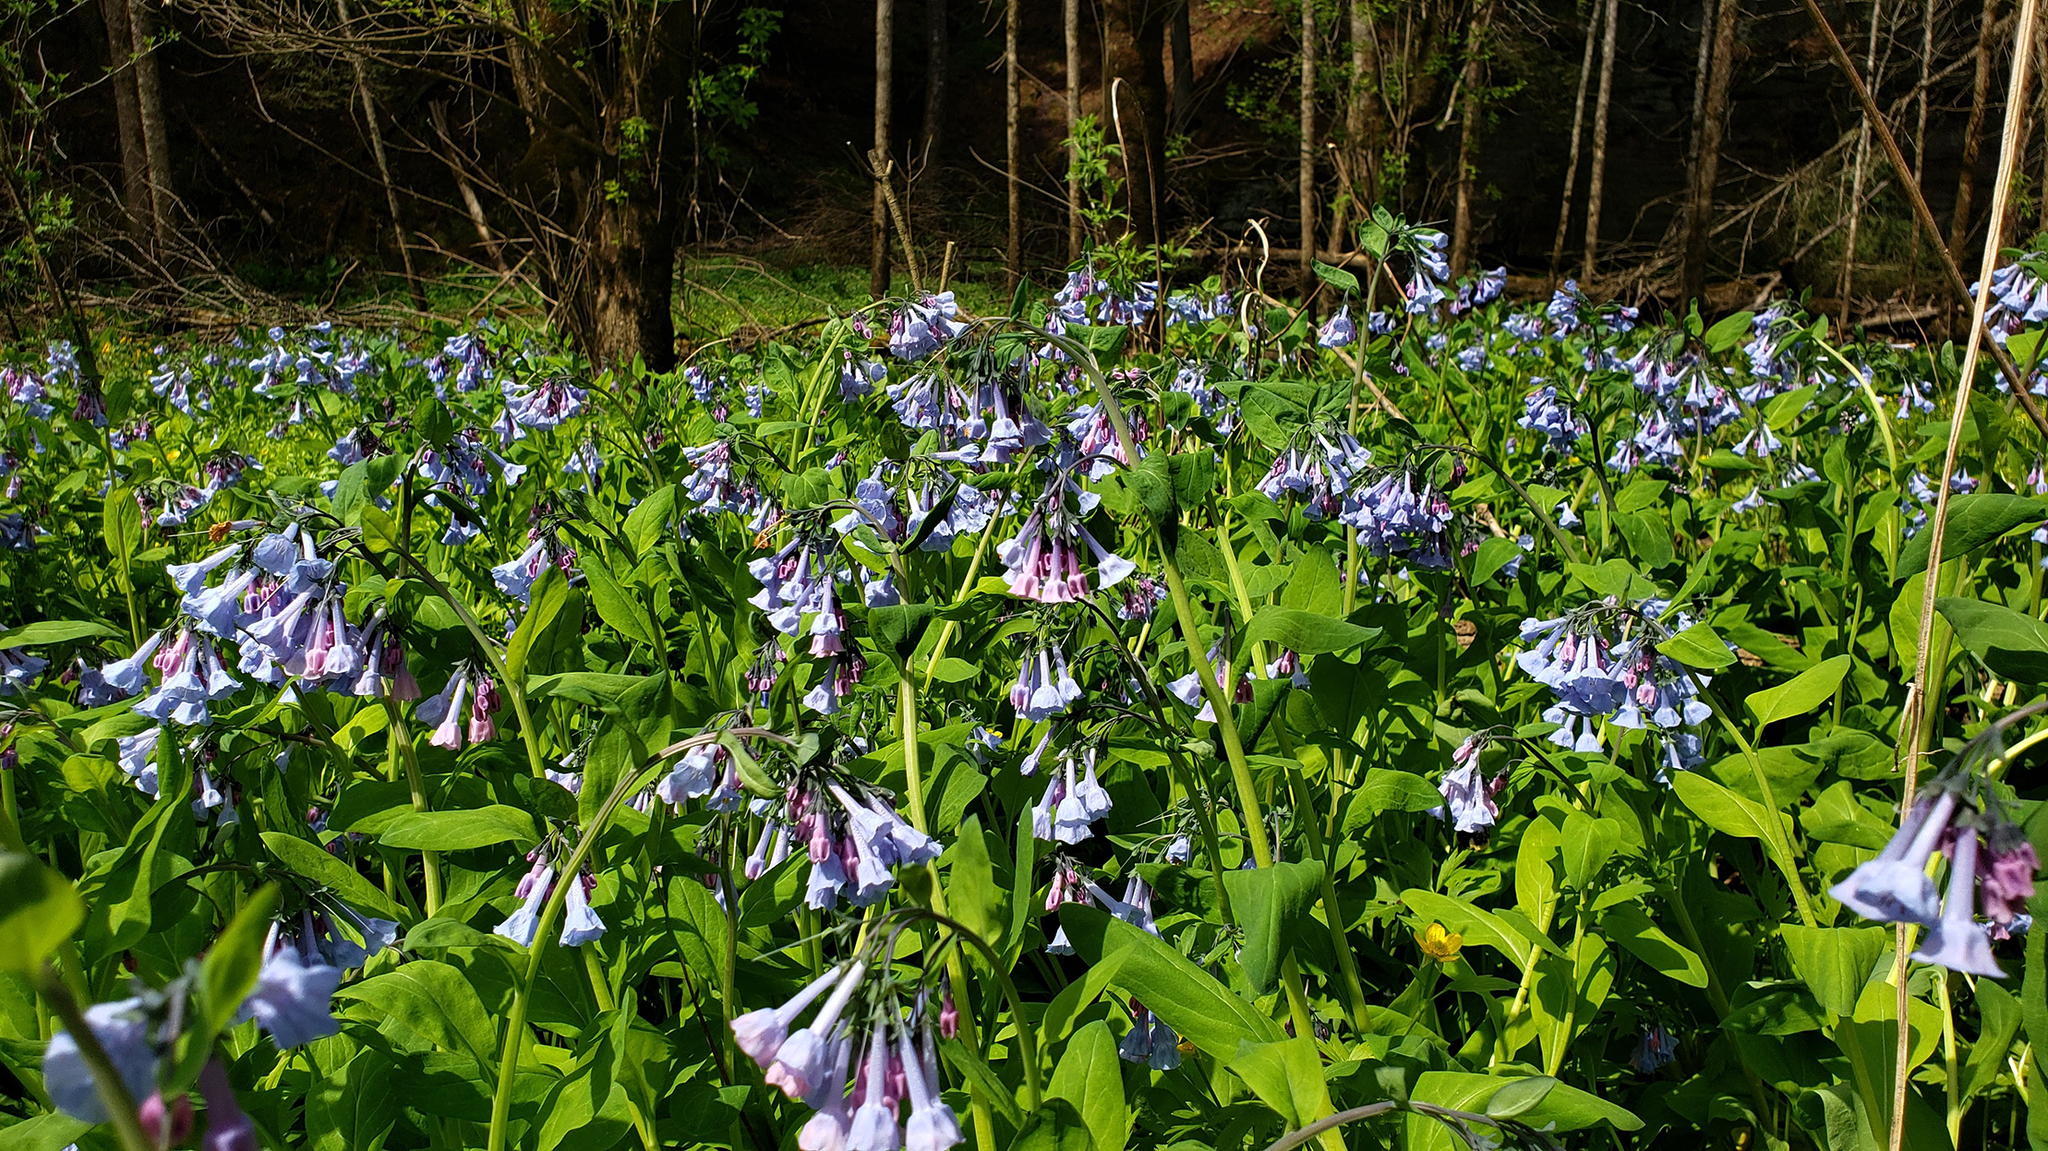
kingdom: Plantae
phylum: Tracheophyta
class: Magnoliopsida
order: Boraginales
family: Boraginaceae
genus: Mertensia
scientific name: Mertensia virginica
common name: Virginia bluebells
